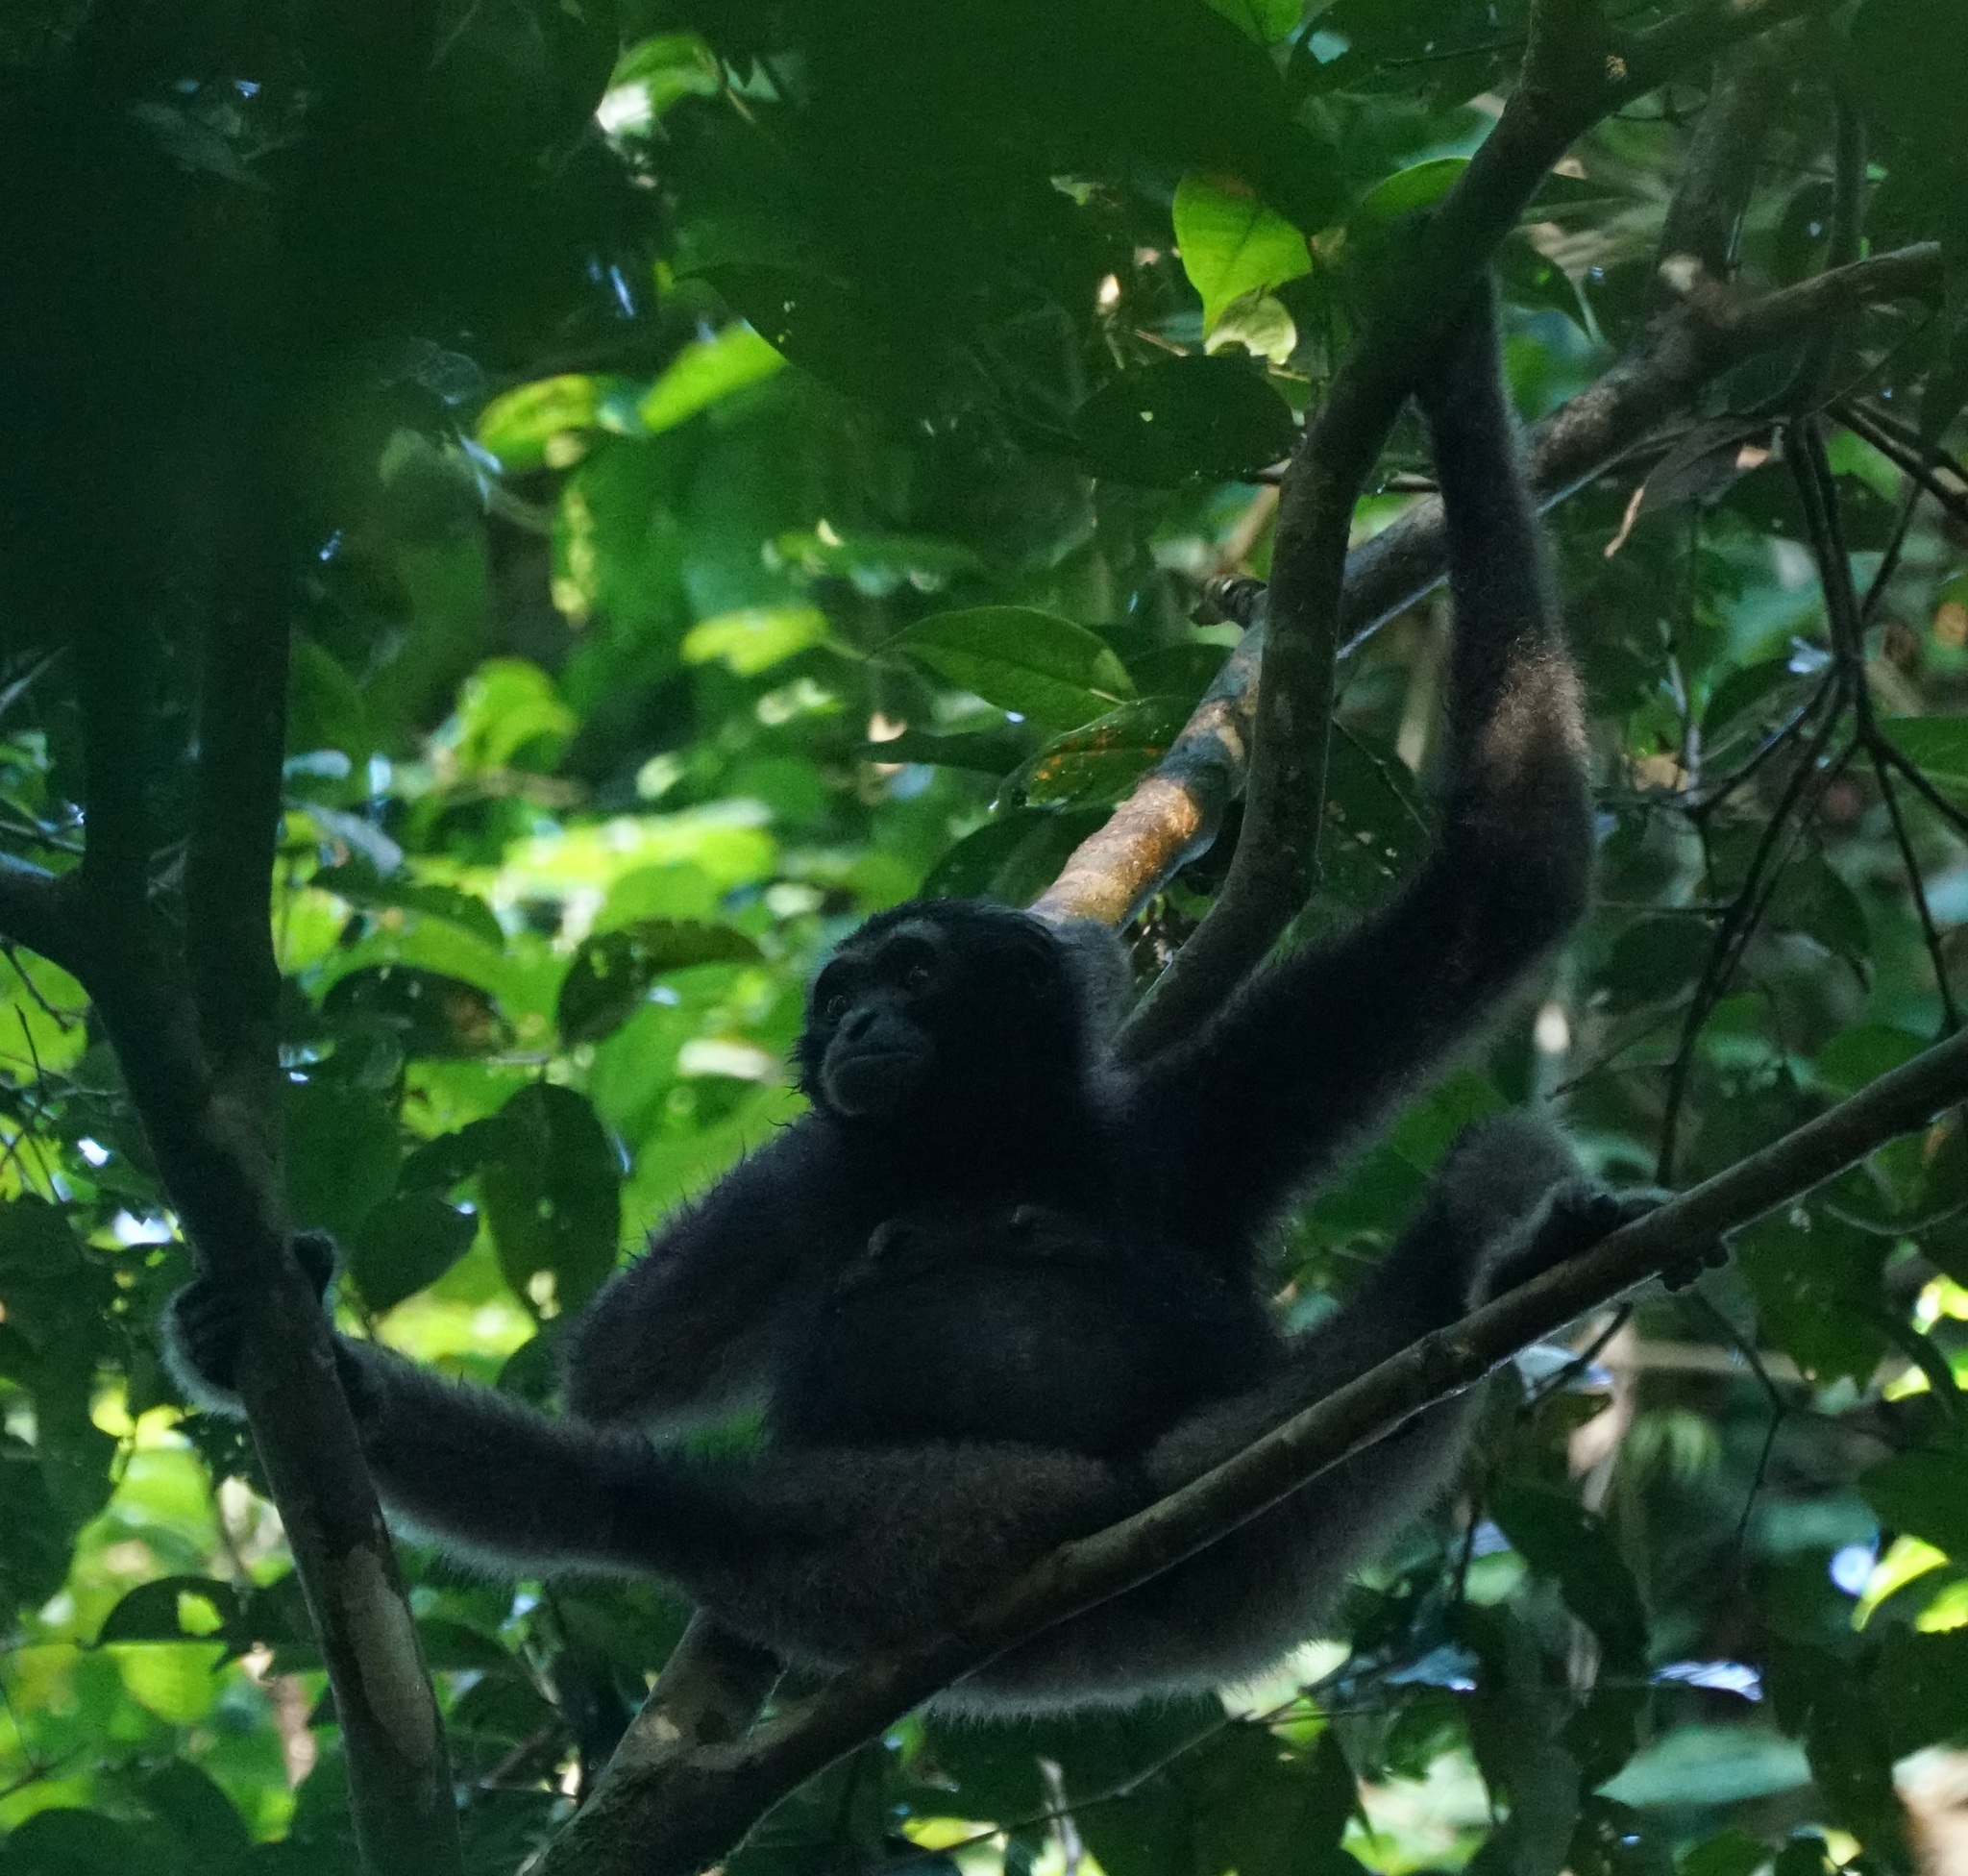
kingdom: Animalia
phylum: Chordata
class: Mammalia
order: Primates
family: Hylobatidae
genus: Hylobates
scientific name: Hylobates funereus
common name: East bornean gray gibbon
